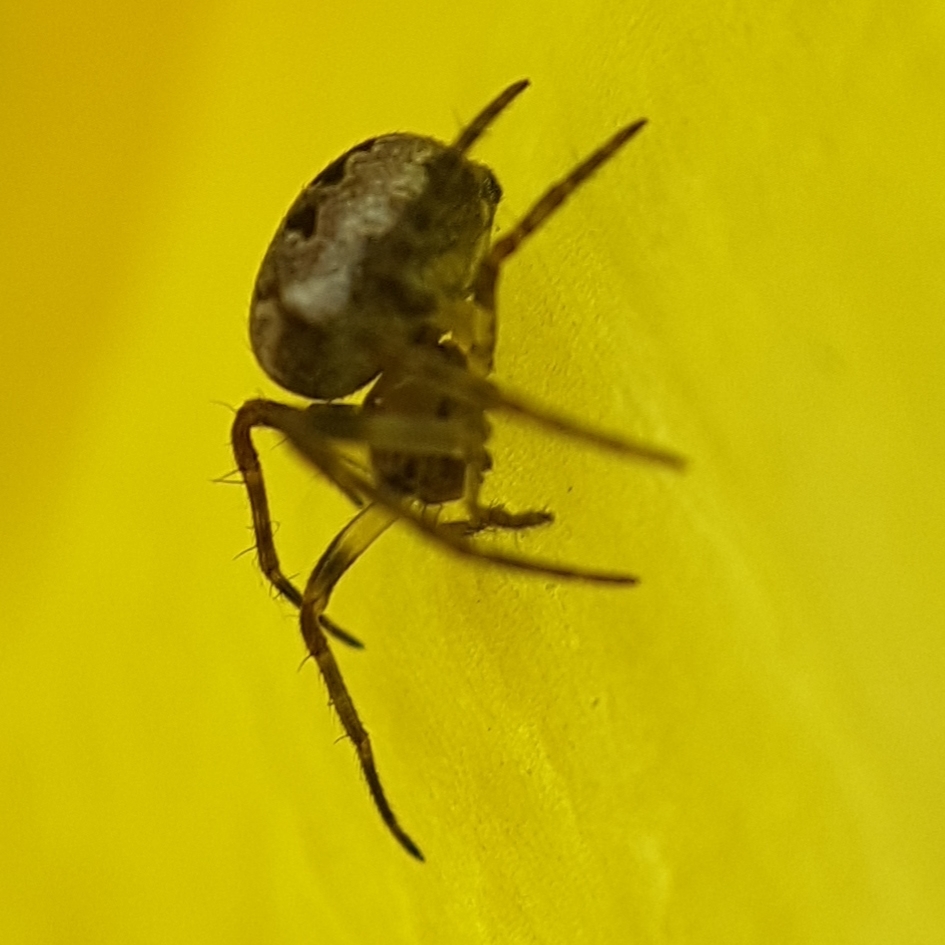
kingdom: Animalia
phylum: Arthropoda
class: Arachnida
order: Araneae
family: Araneidae
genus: Zilla
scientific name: Zilla diodia
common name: Zilla diodia
